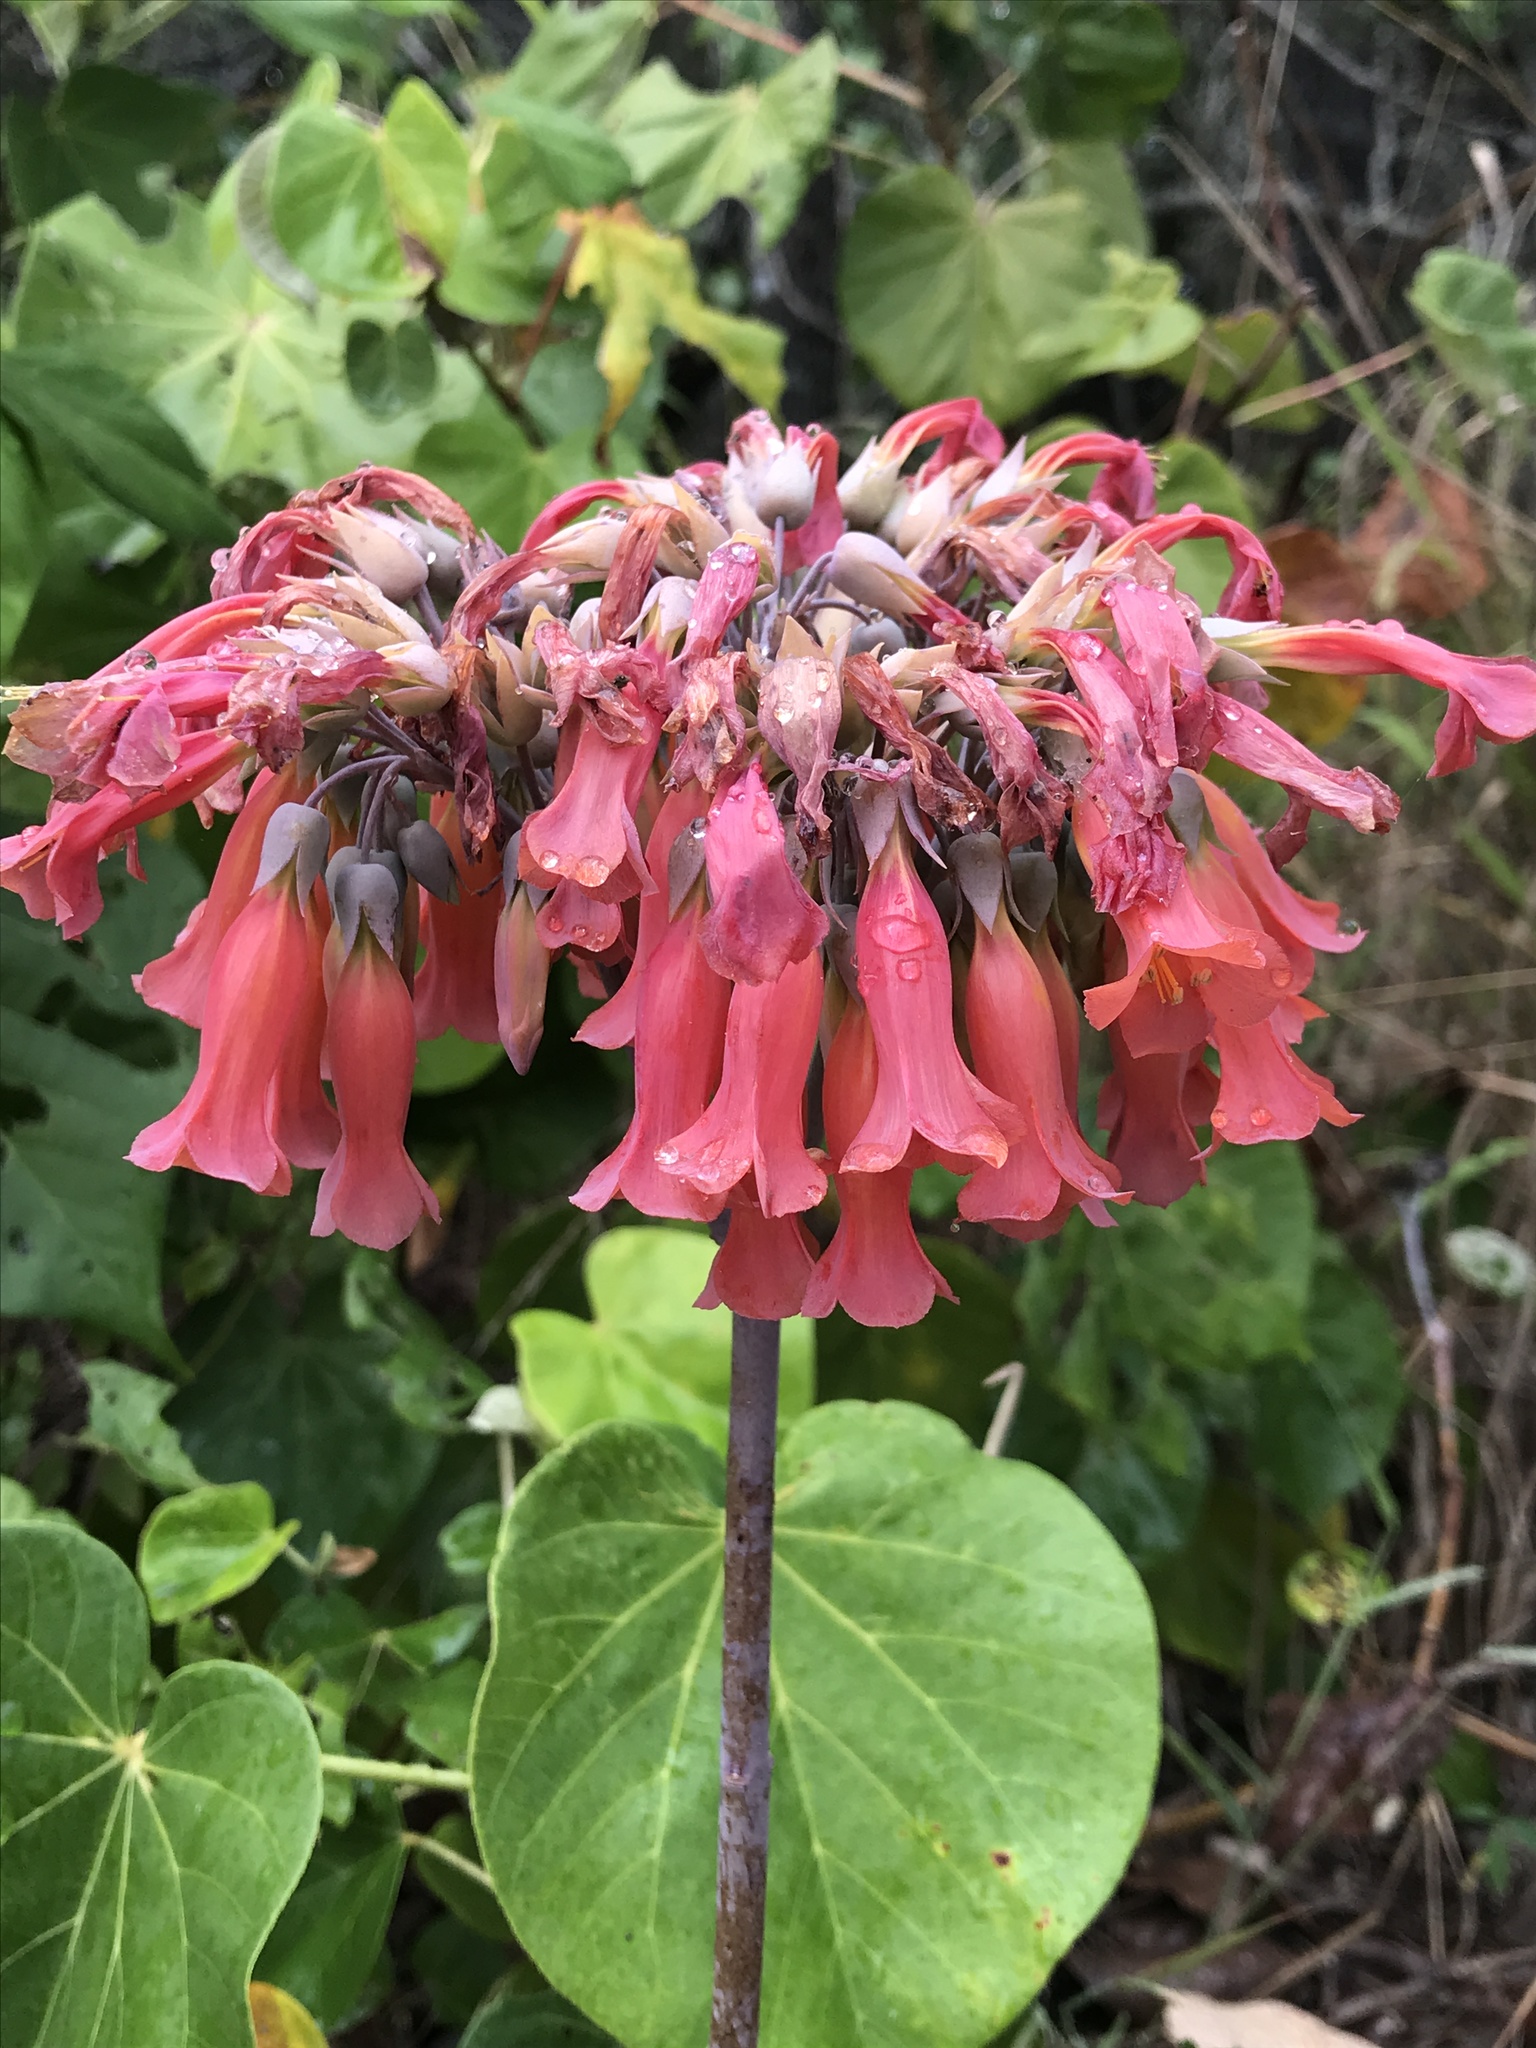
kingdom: Plantae
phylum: Tracheophyta
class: Magnoliopsida
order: Saxifragales
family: Crassulaceae
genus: Kalanchoe
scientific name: Kalanchoe delagoensis
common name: Chandelier plant
